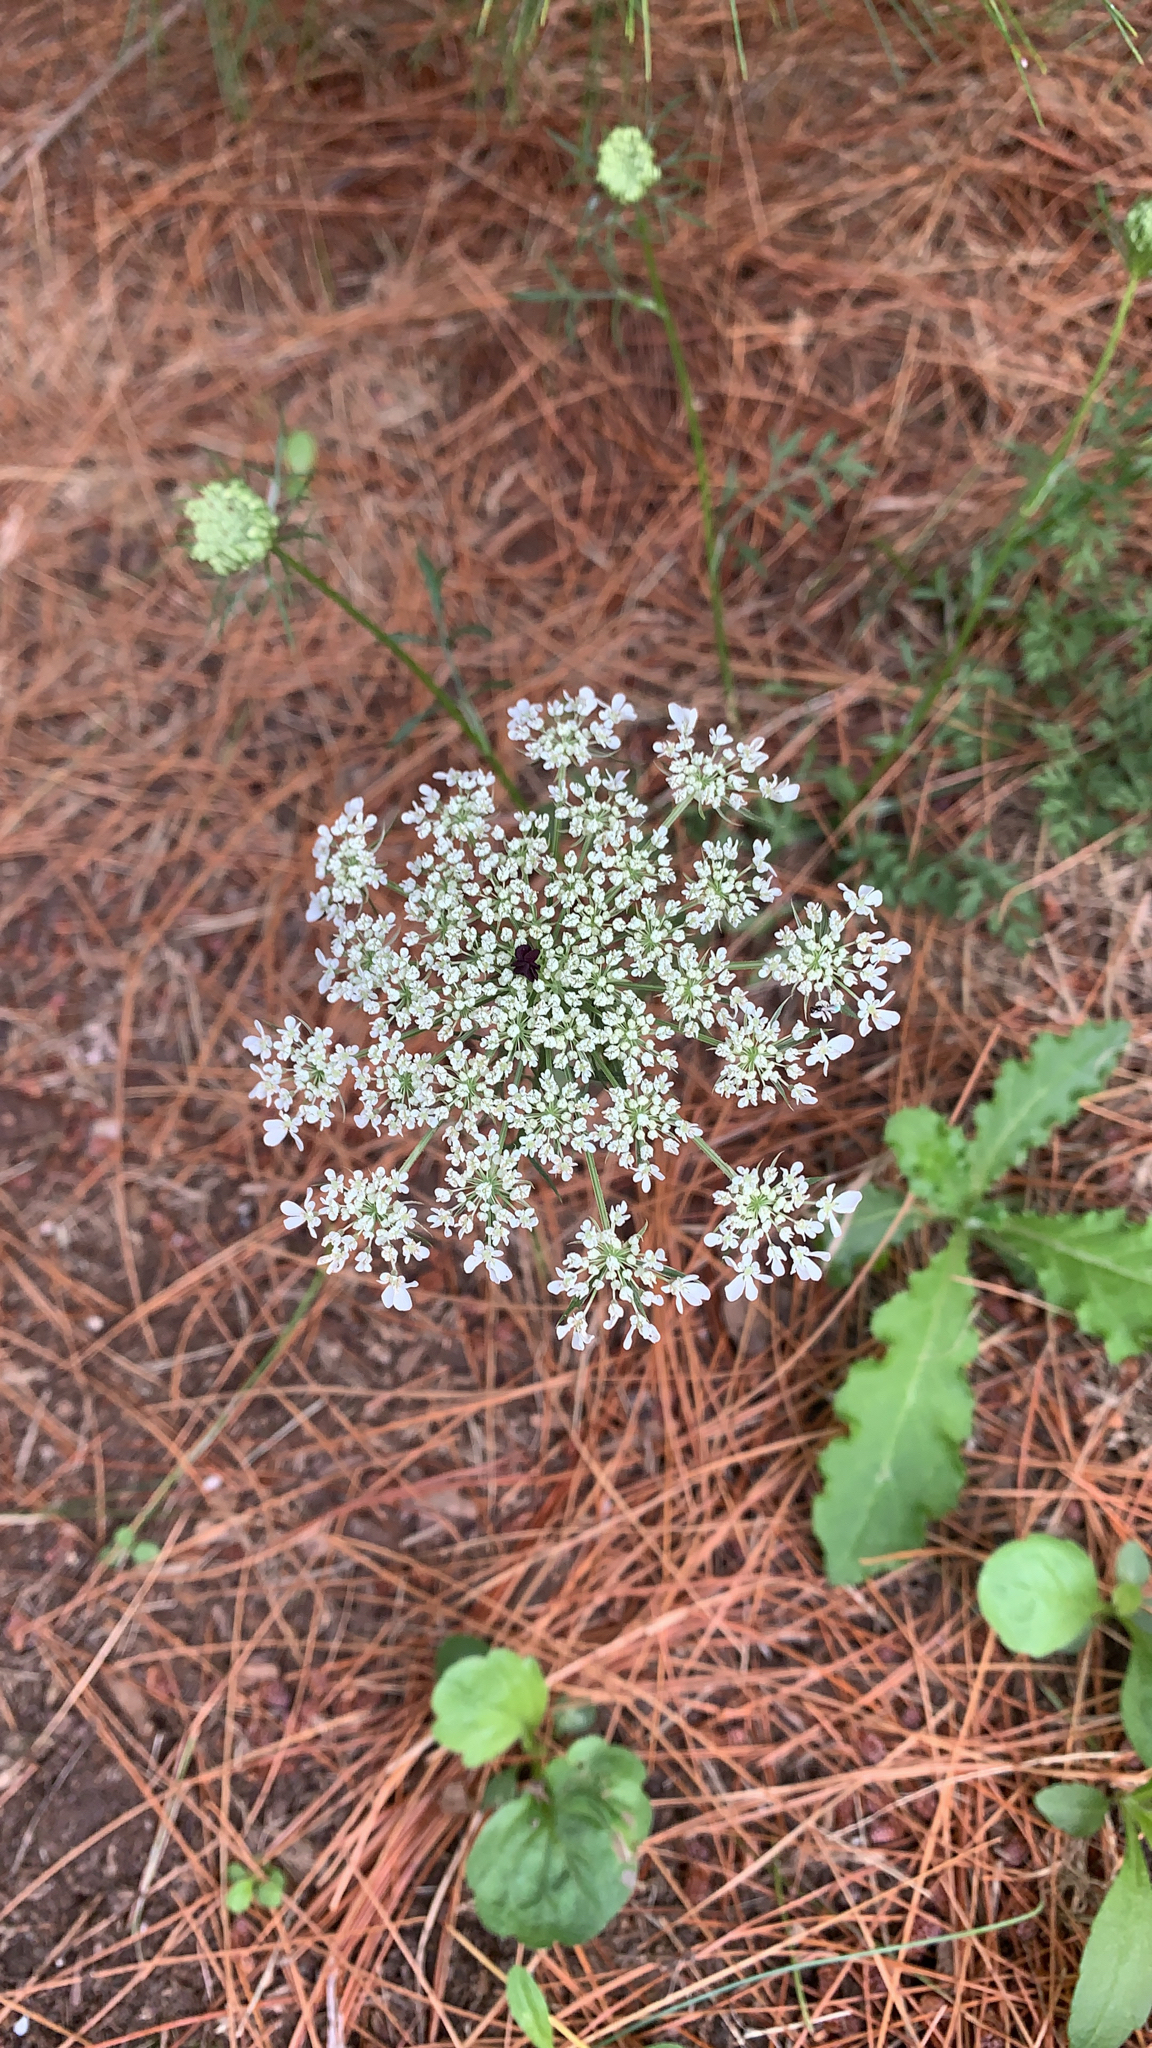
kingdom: Plantae
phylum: Tracheophyta
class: Magnoliopsida
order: Apiales
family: Apiaceae
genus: Daucus
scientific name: Daucus carota
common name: Wild carrot
